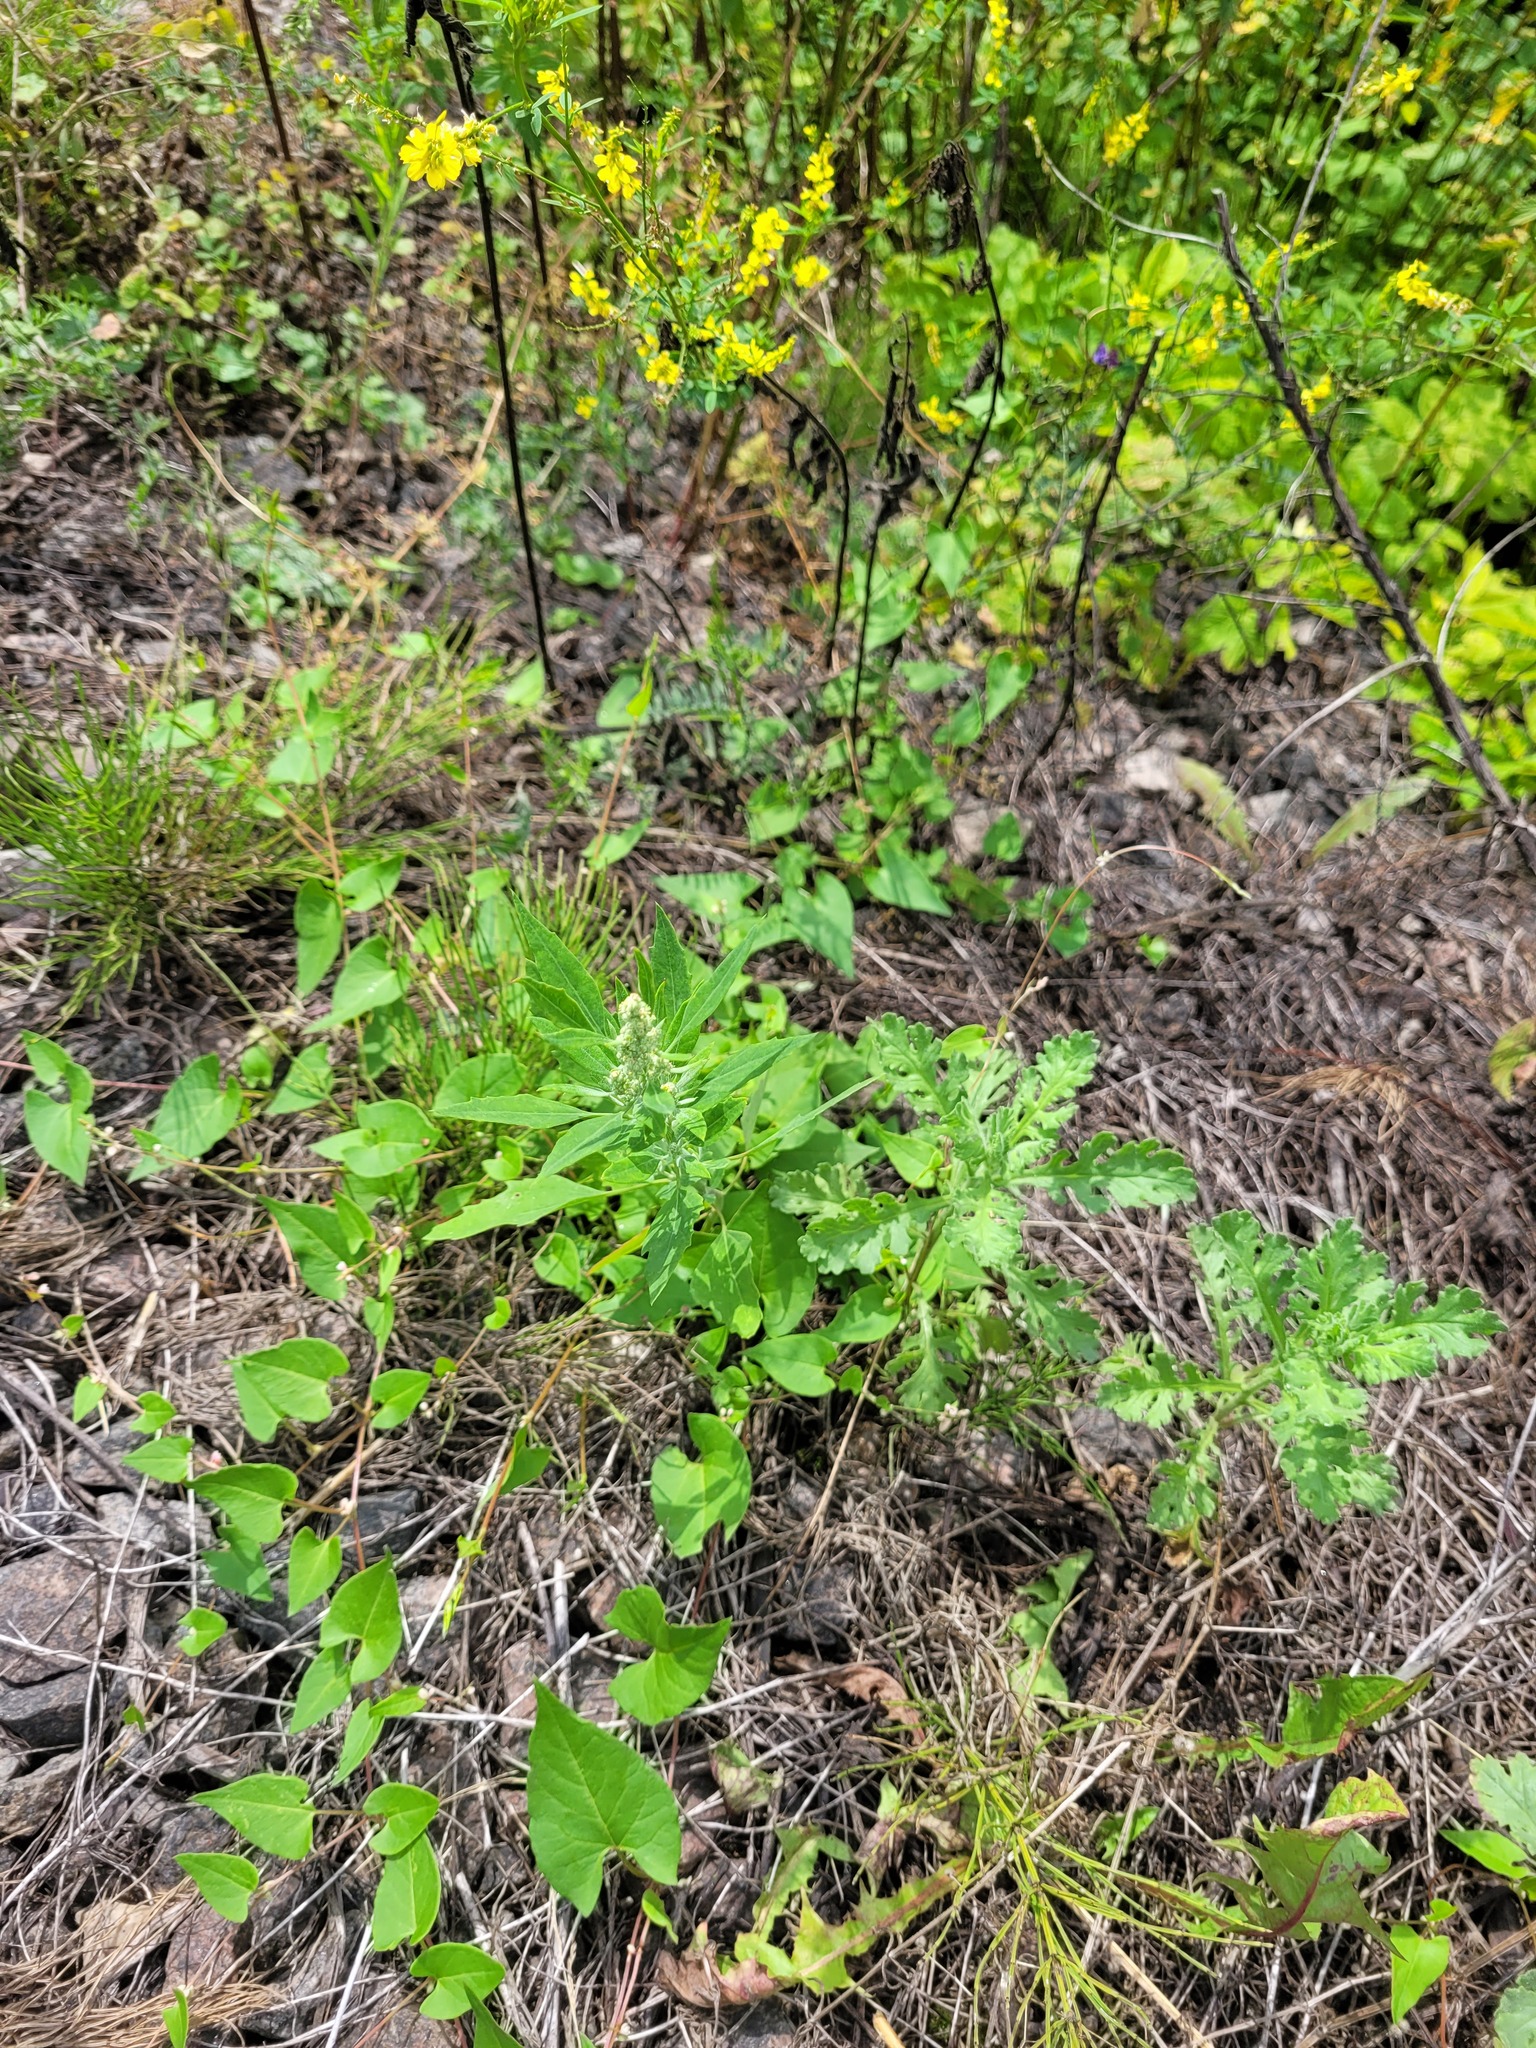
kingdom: Plantae
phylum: Tracheophyta
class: Magnoliopsida
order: Caryophyllales
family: Amaranthaceae
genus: Chenopodium
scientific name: Chenopodium album
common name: Fat-hen
